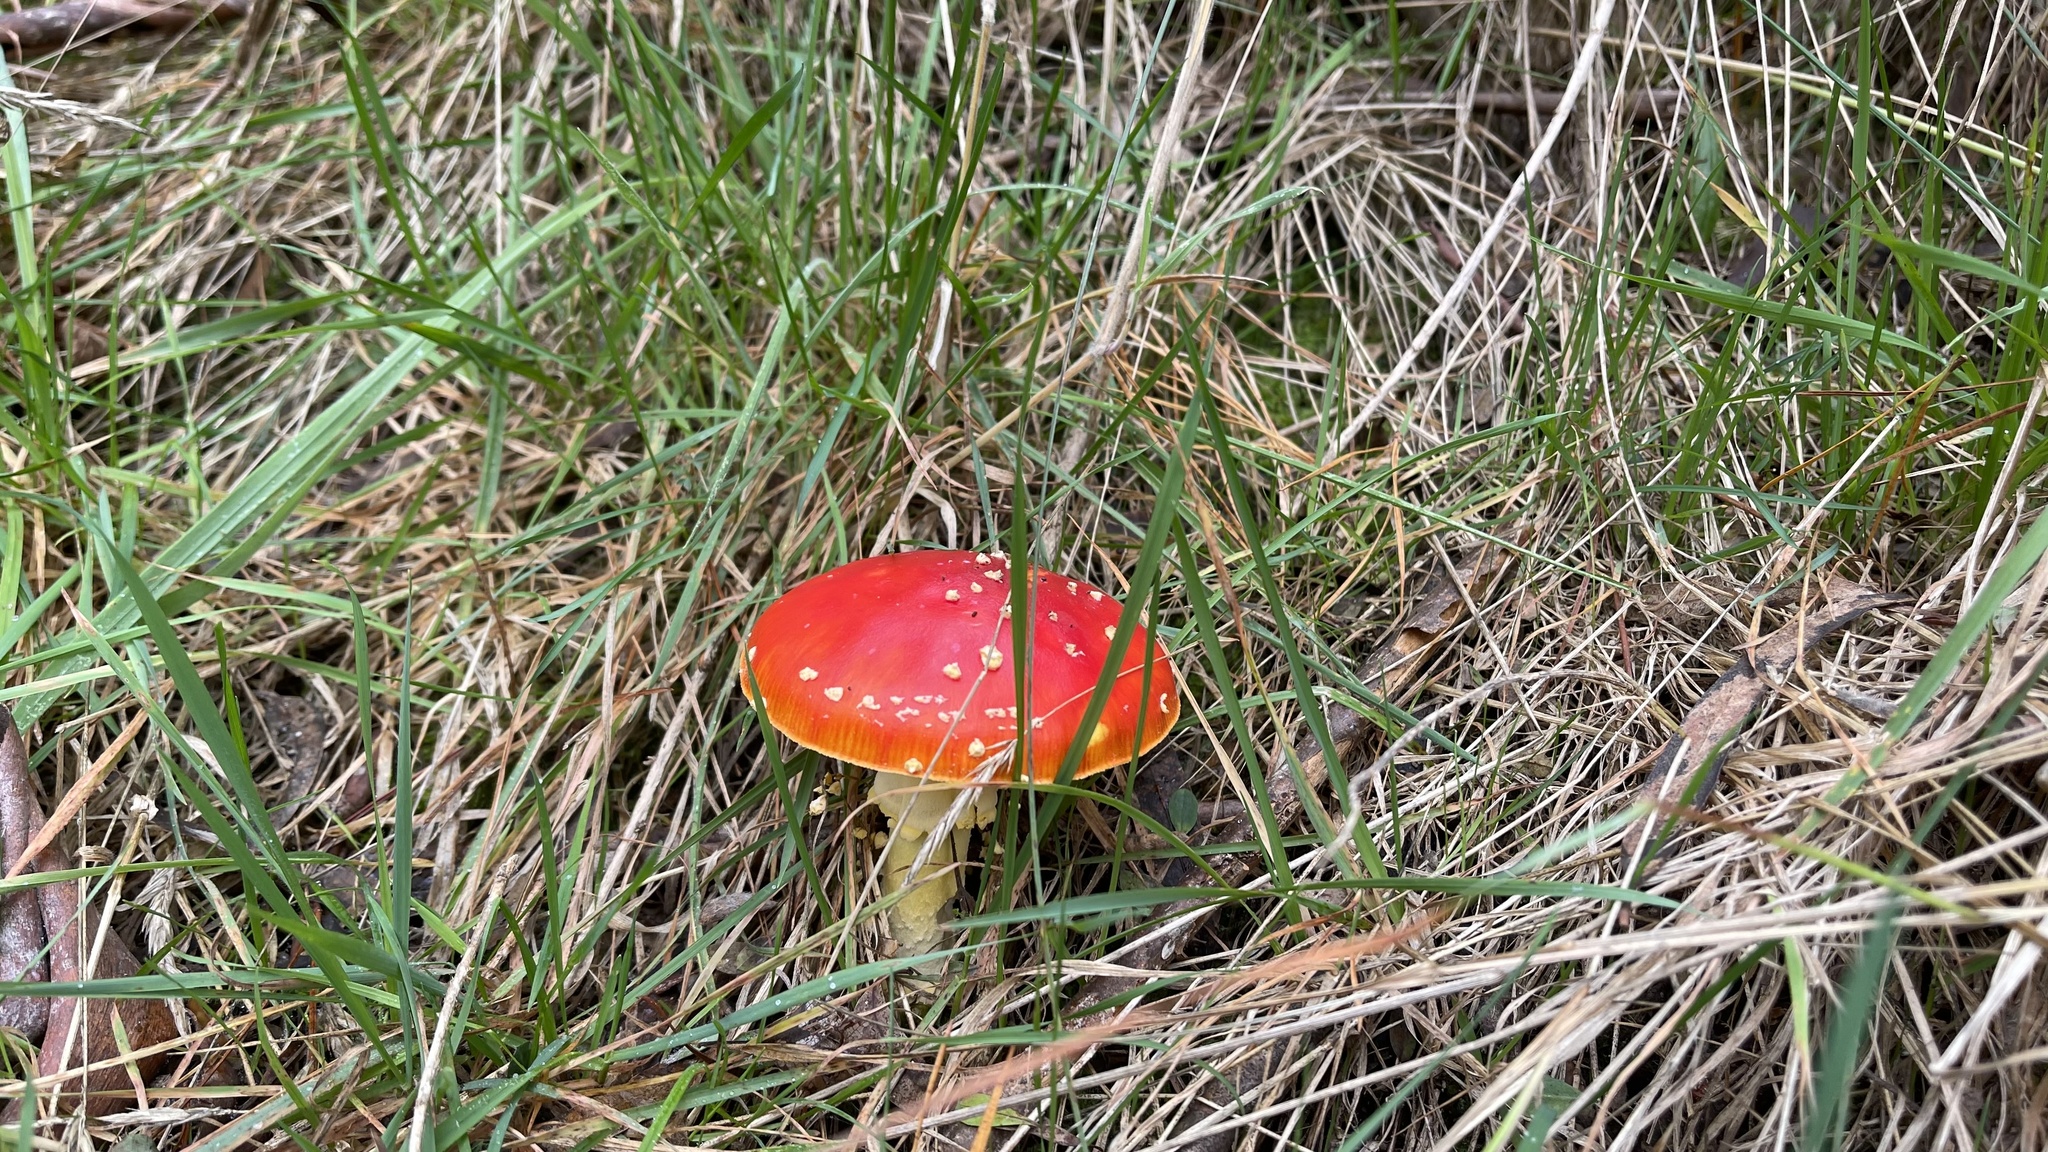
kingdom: Fungi
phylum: Basidiomycota
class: Agaricomycetes
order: Agaricales
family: Amanitaceae
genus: Amanita
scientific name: Amanita muscaria
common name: Fly agaric
